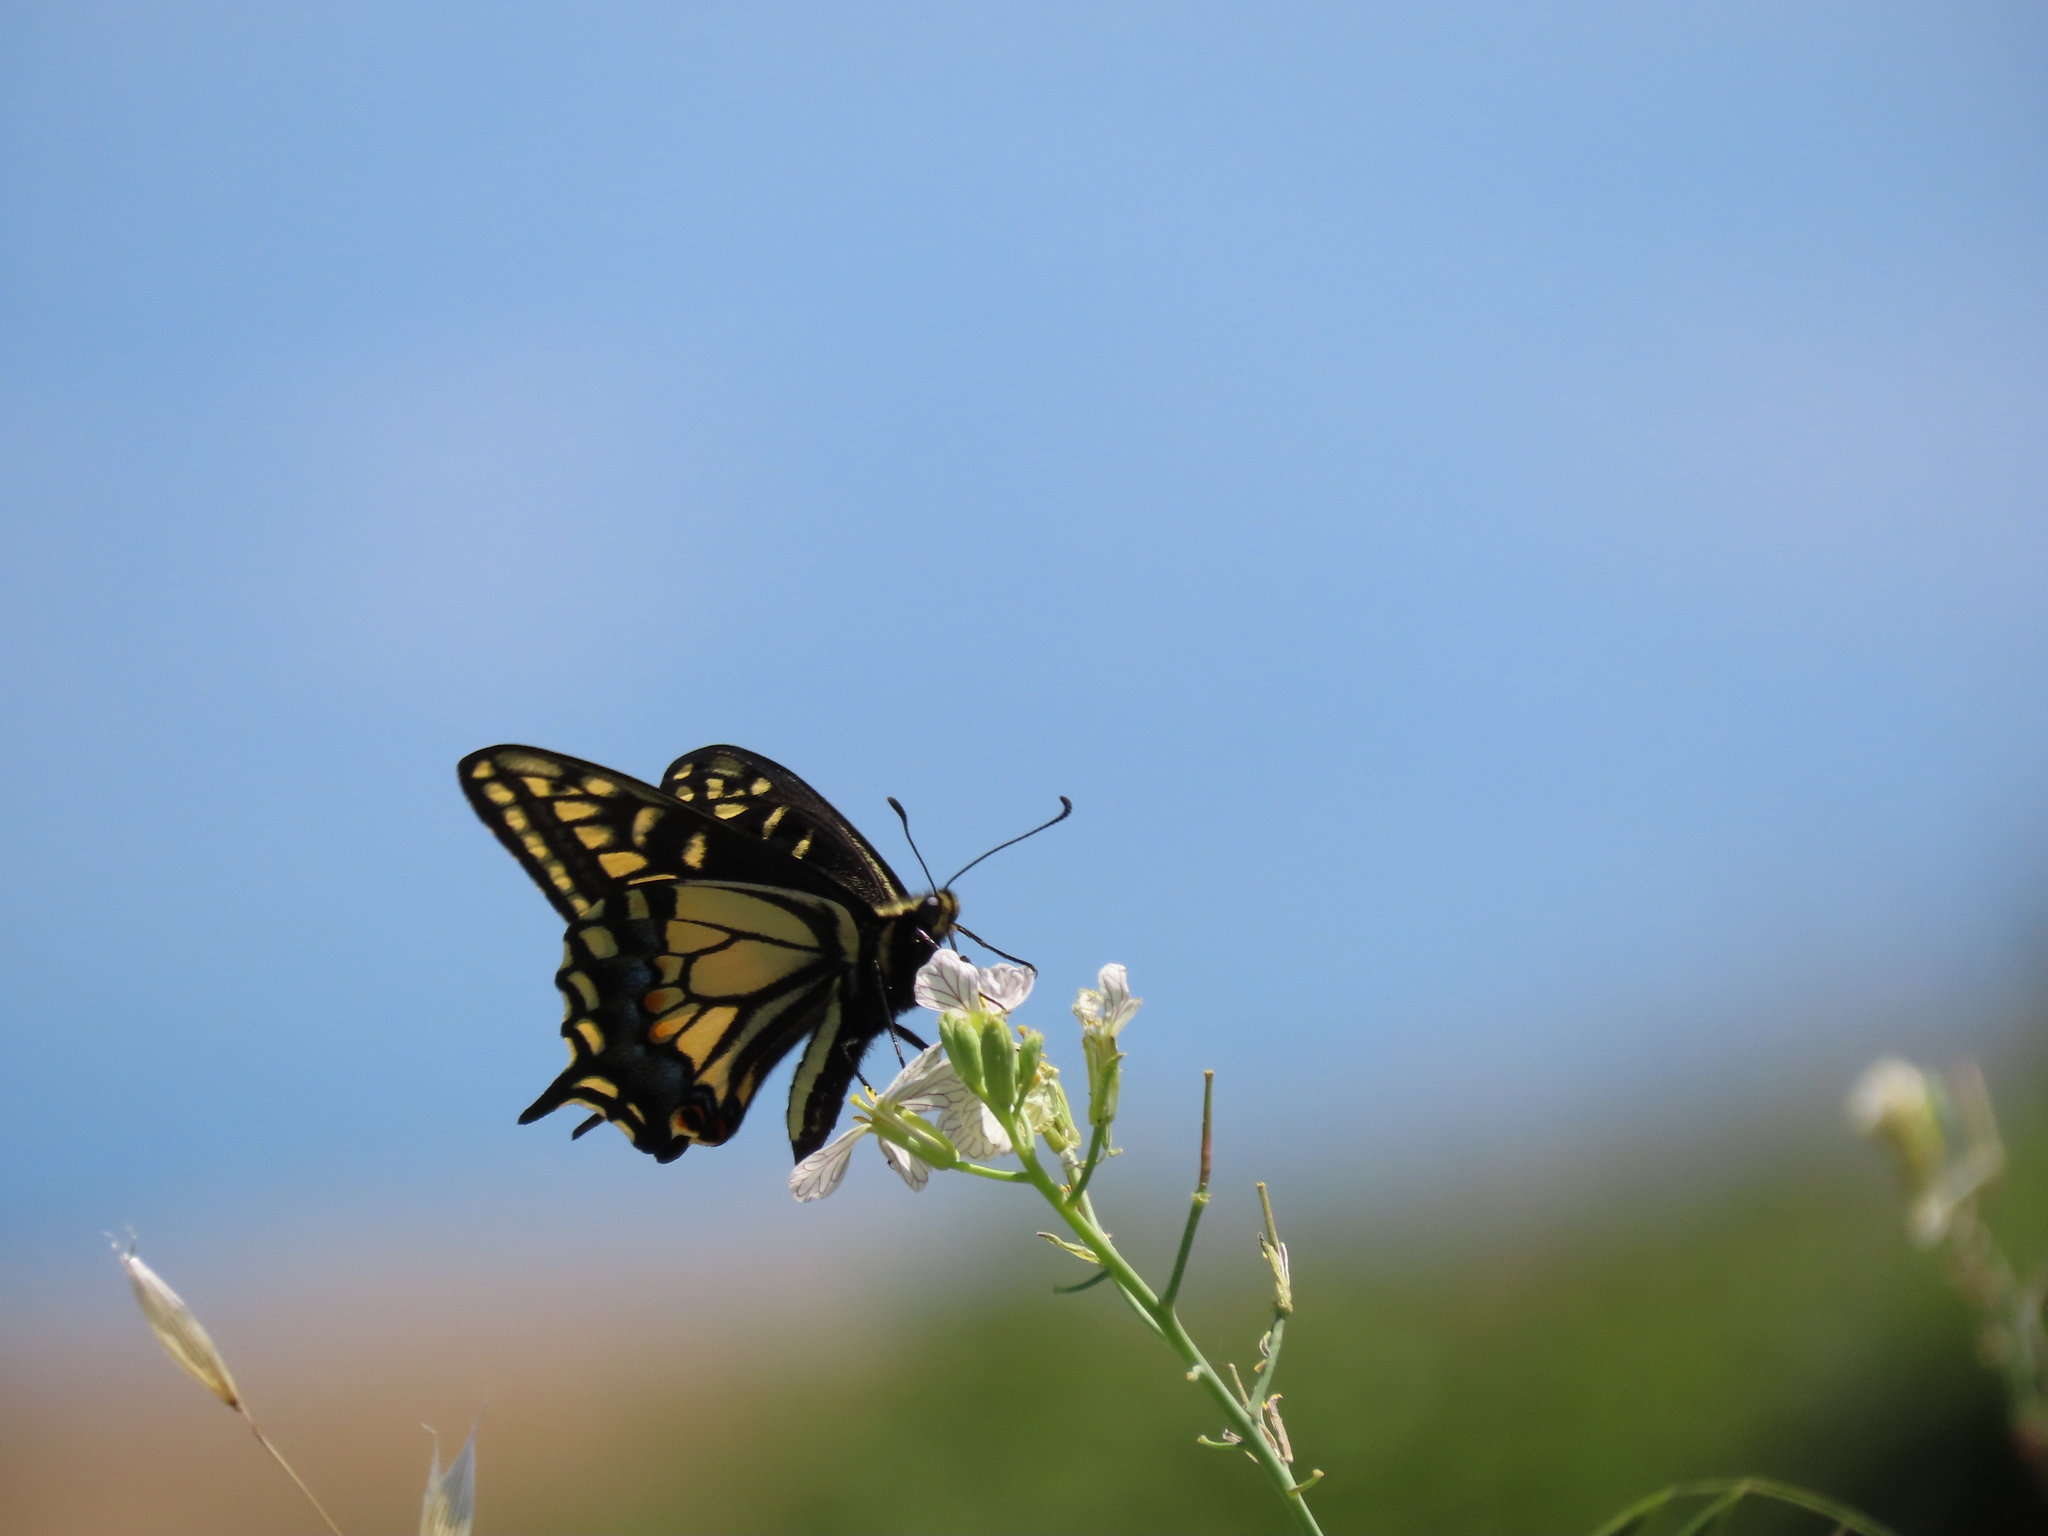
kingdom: Animalia
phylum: Arthropoda
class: Insecta
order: Lepidoptera
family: Papilionidae
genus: Papilio
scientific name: Papilio zelicaon
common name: Anise swallowtail
